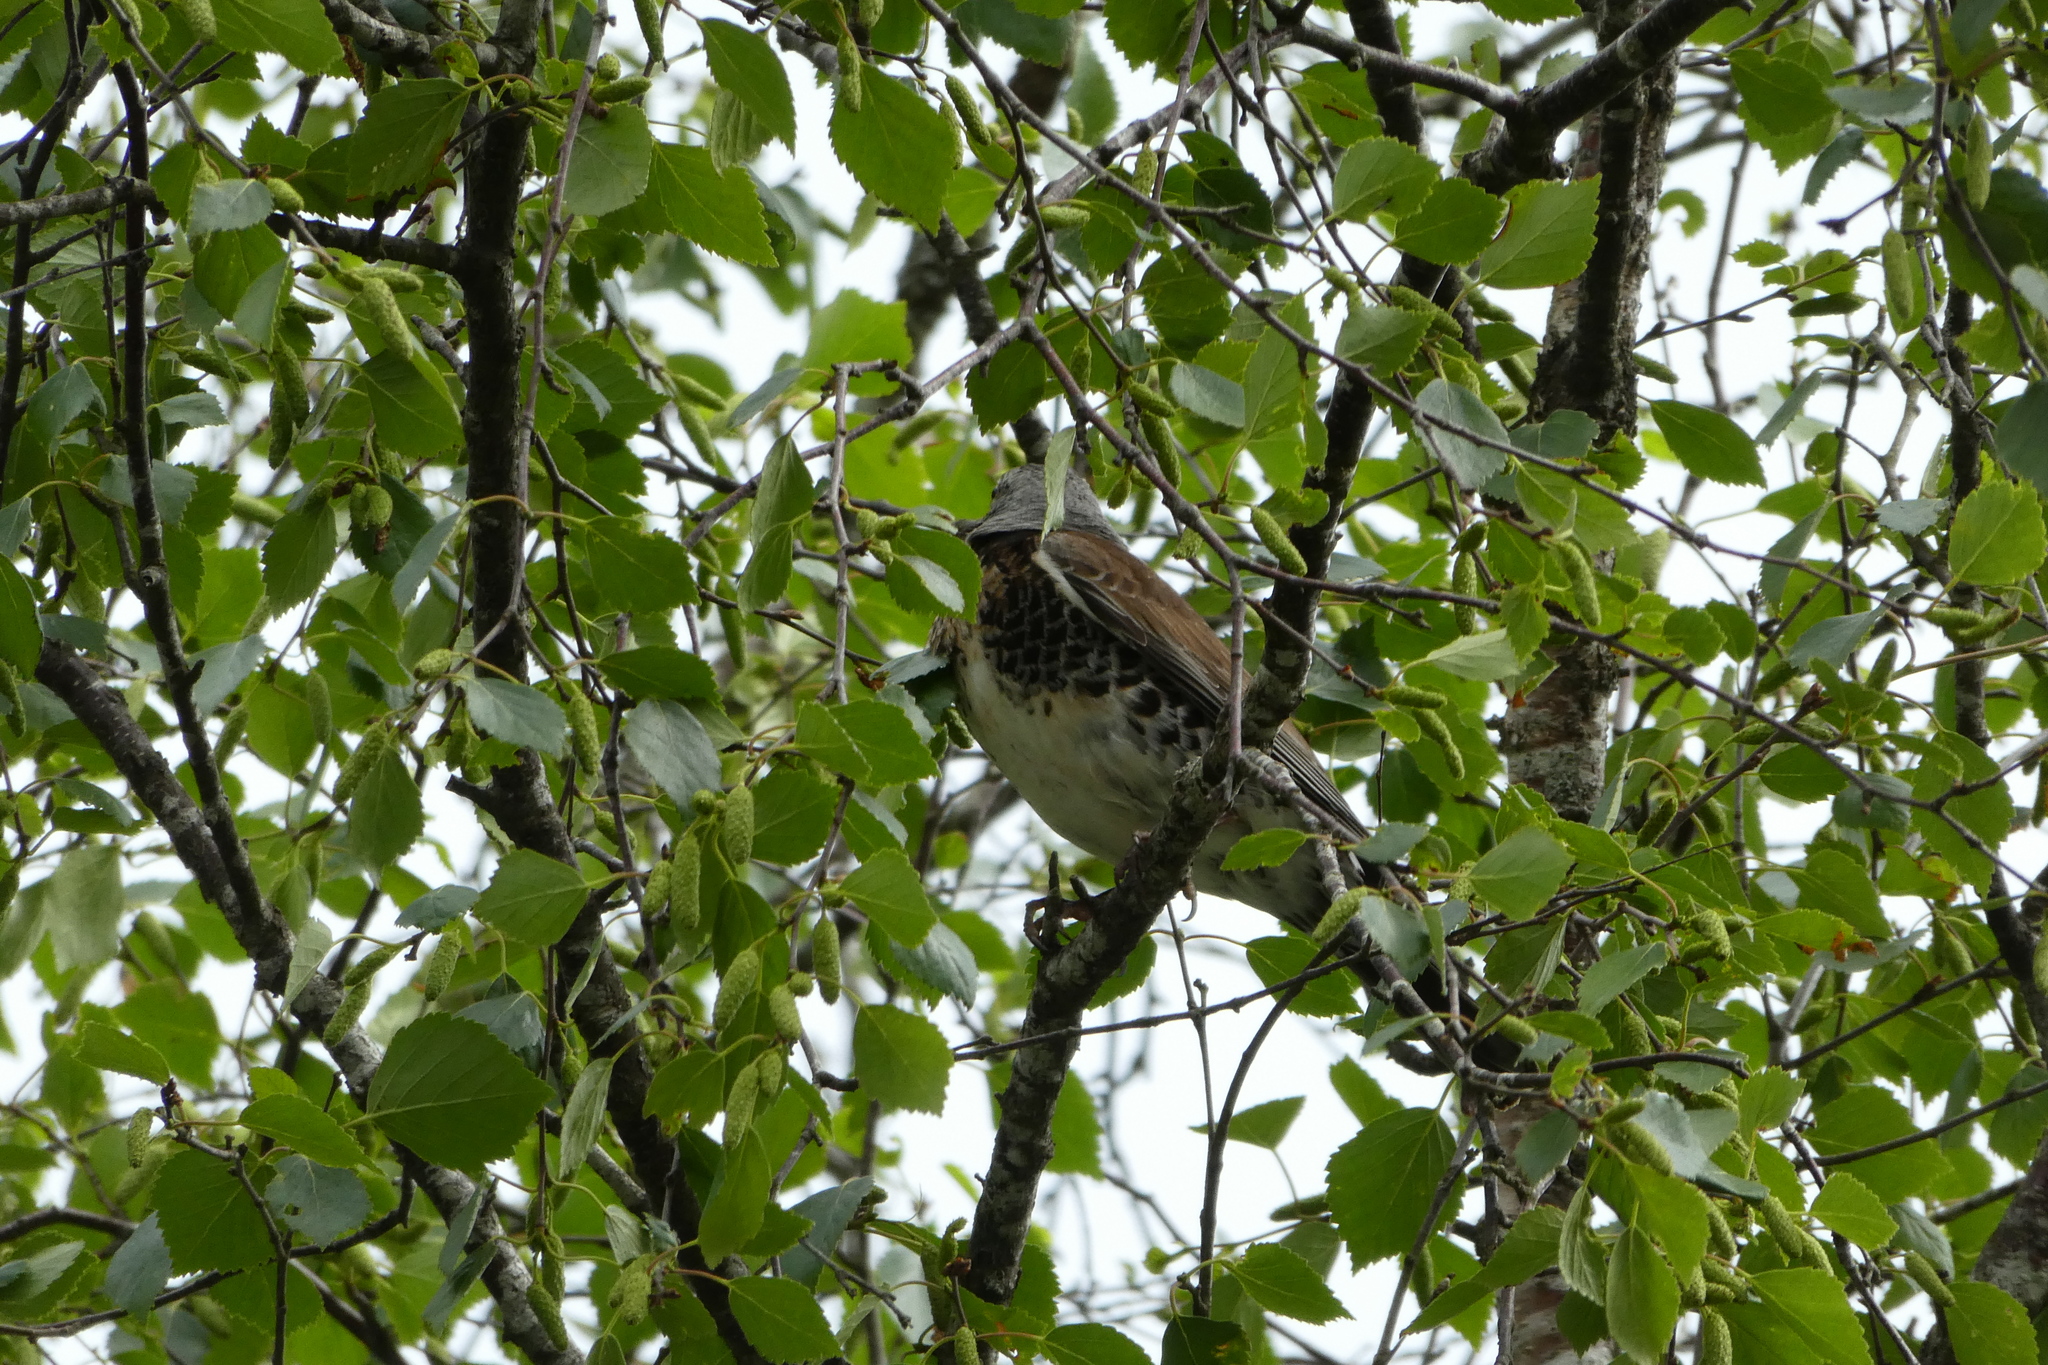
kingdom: Animalia
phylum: Chordata
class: Aves
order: Passeriformes
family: Turdidae
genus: Turdus
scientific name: Turdus pilaris
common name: Fieldfare
